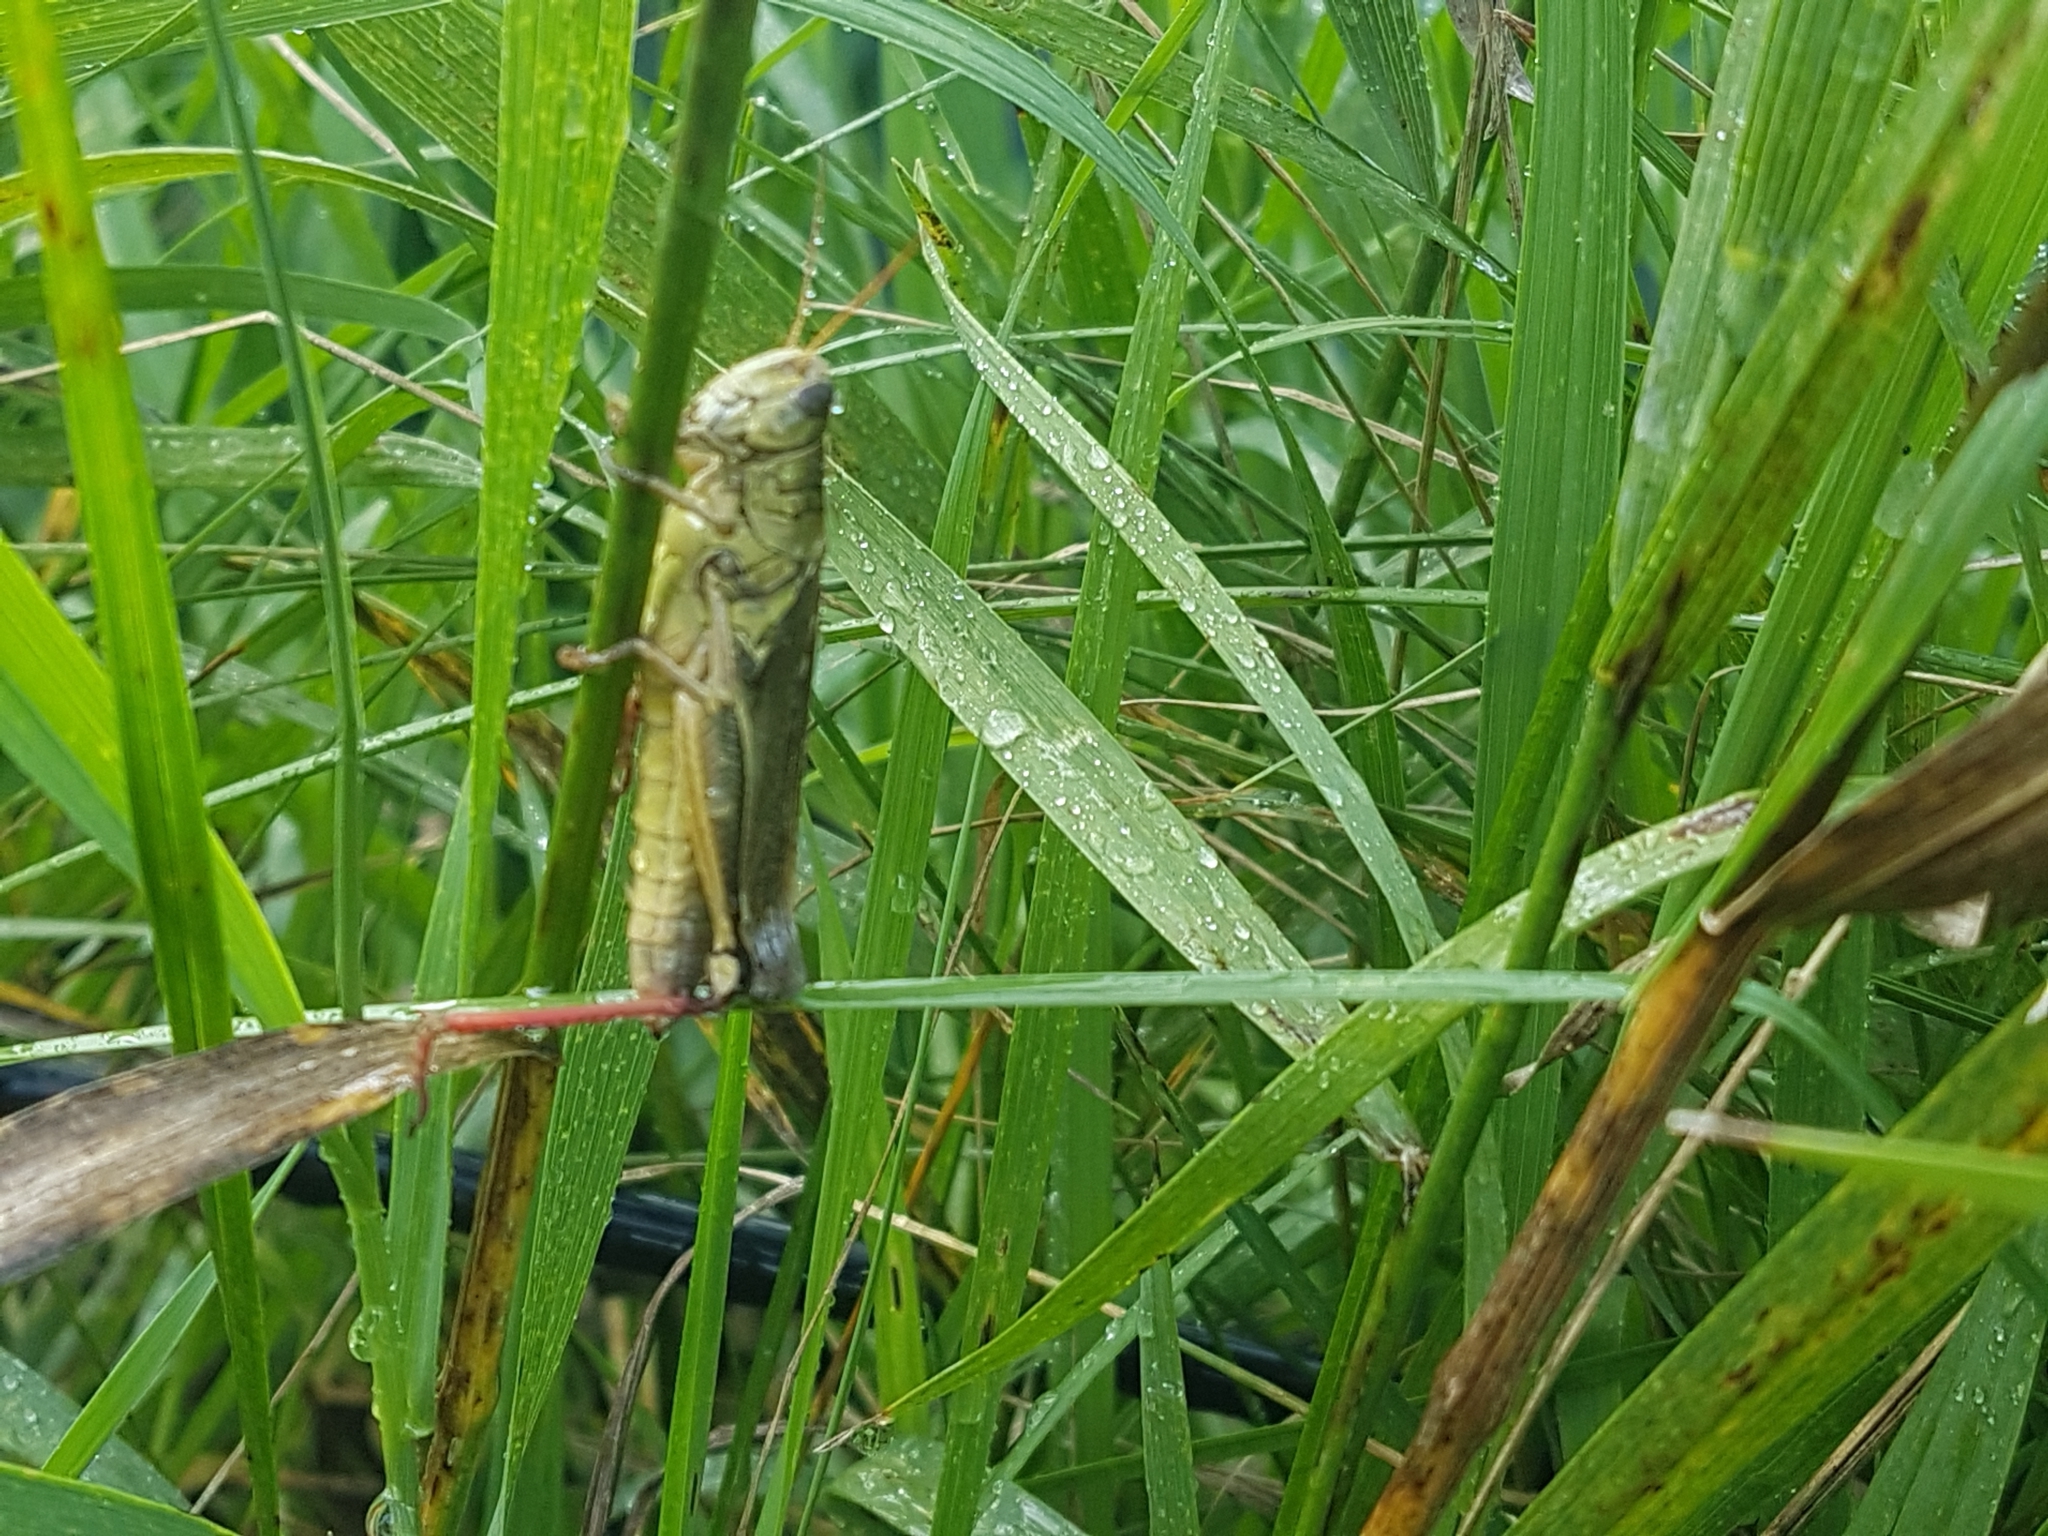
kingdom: Animalia
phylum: Arthropoda
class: Insecta
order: Orthoptera
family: Acrididae
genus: Melanoplus
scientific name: Melanoplus bivittatus
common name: Two-striped grasshopper
